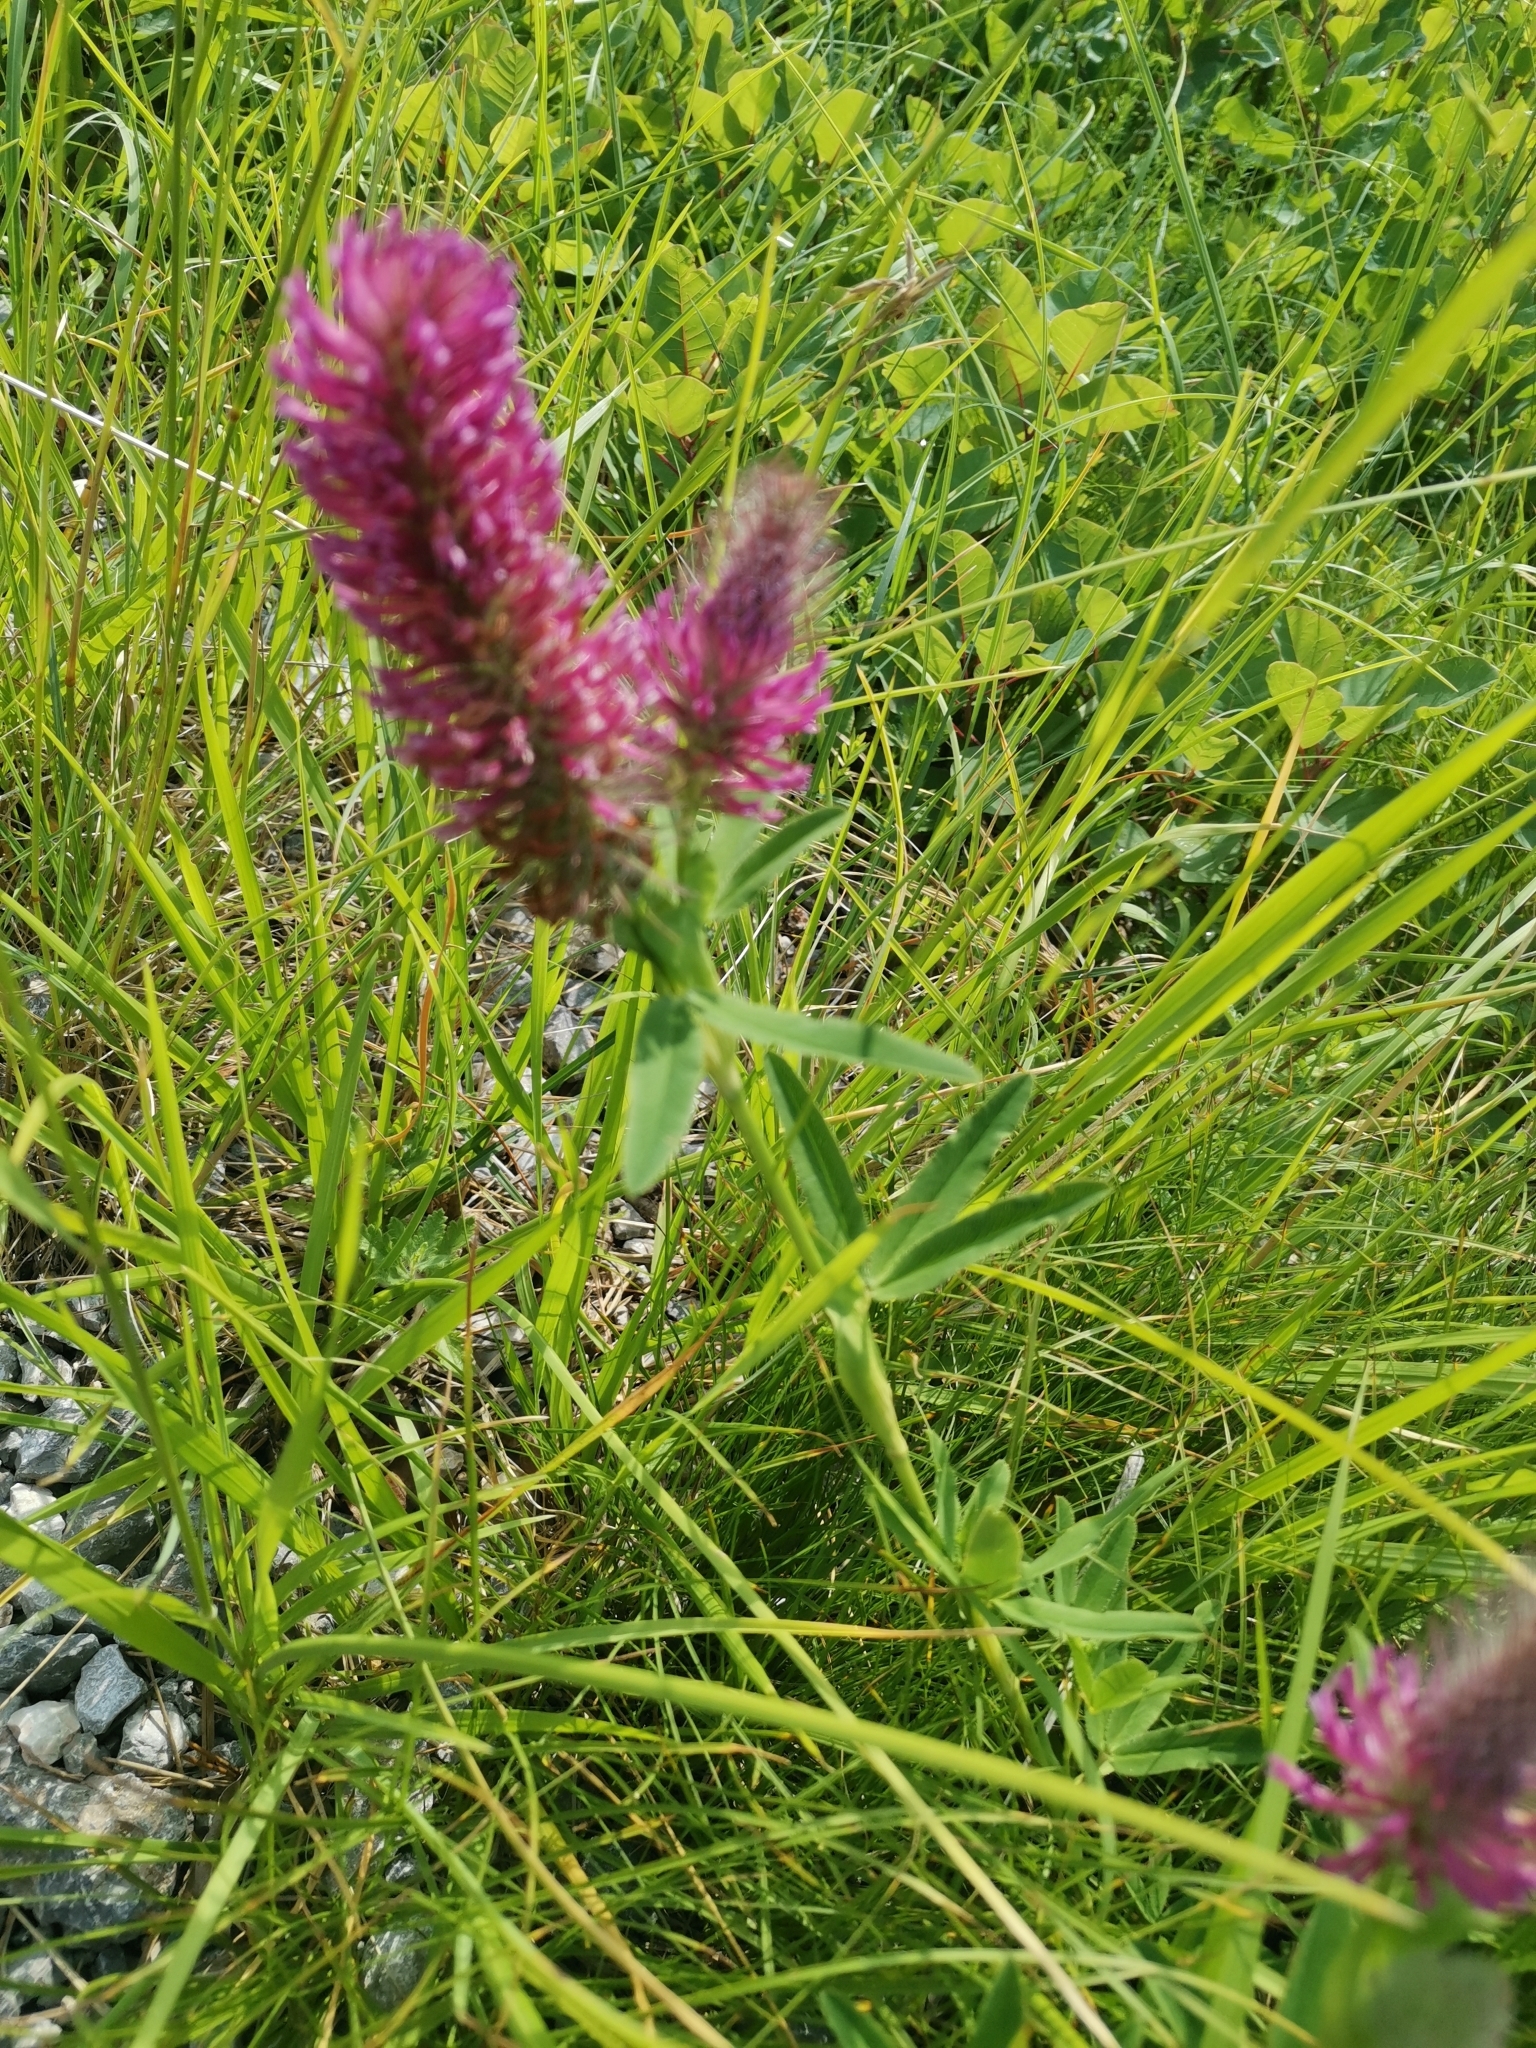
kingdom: Plantae
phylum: Tracheophyta
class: Magnoliopsida
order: Fabales
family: Fabaceae
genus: Trifolium
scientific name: Trifolium rubens
